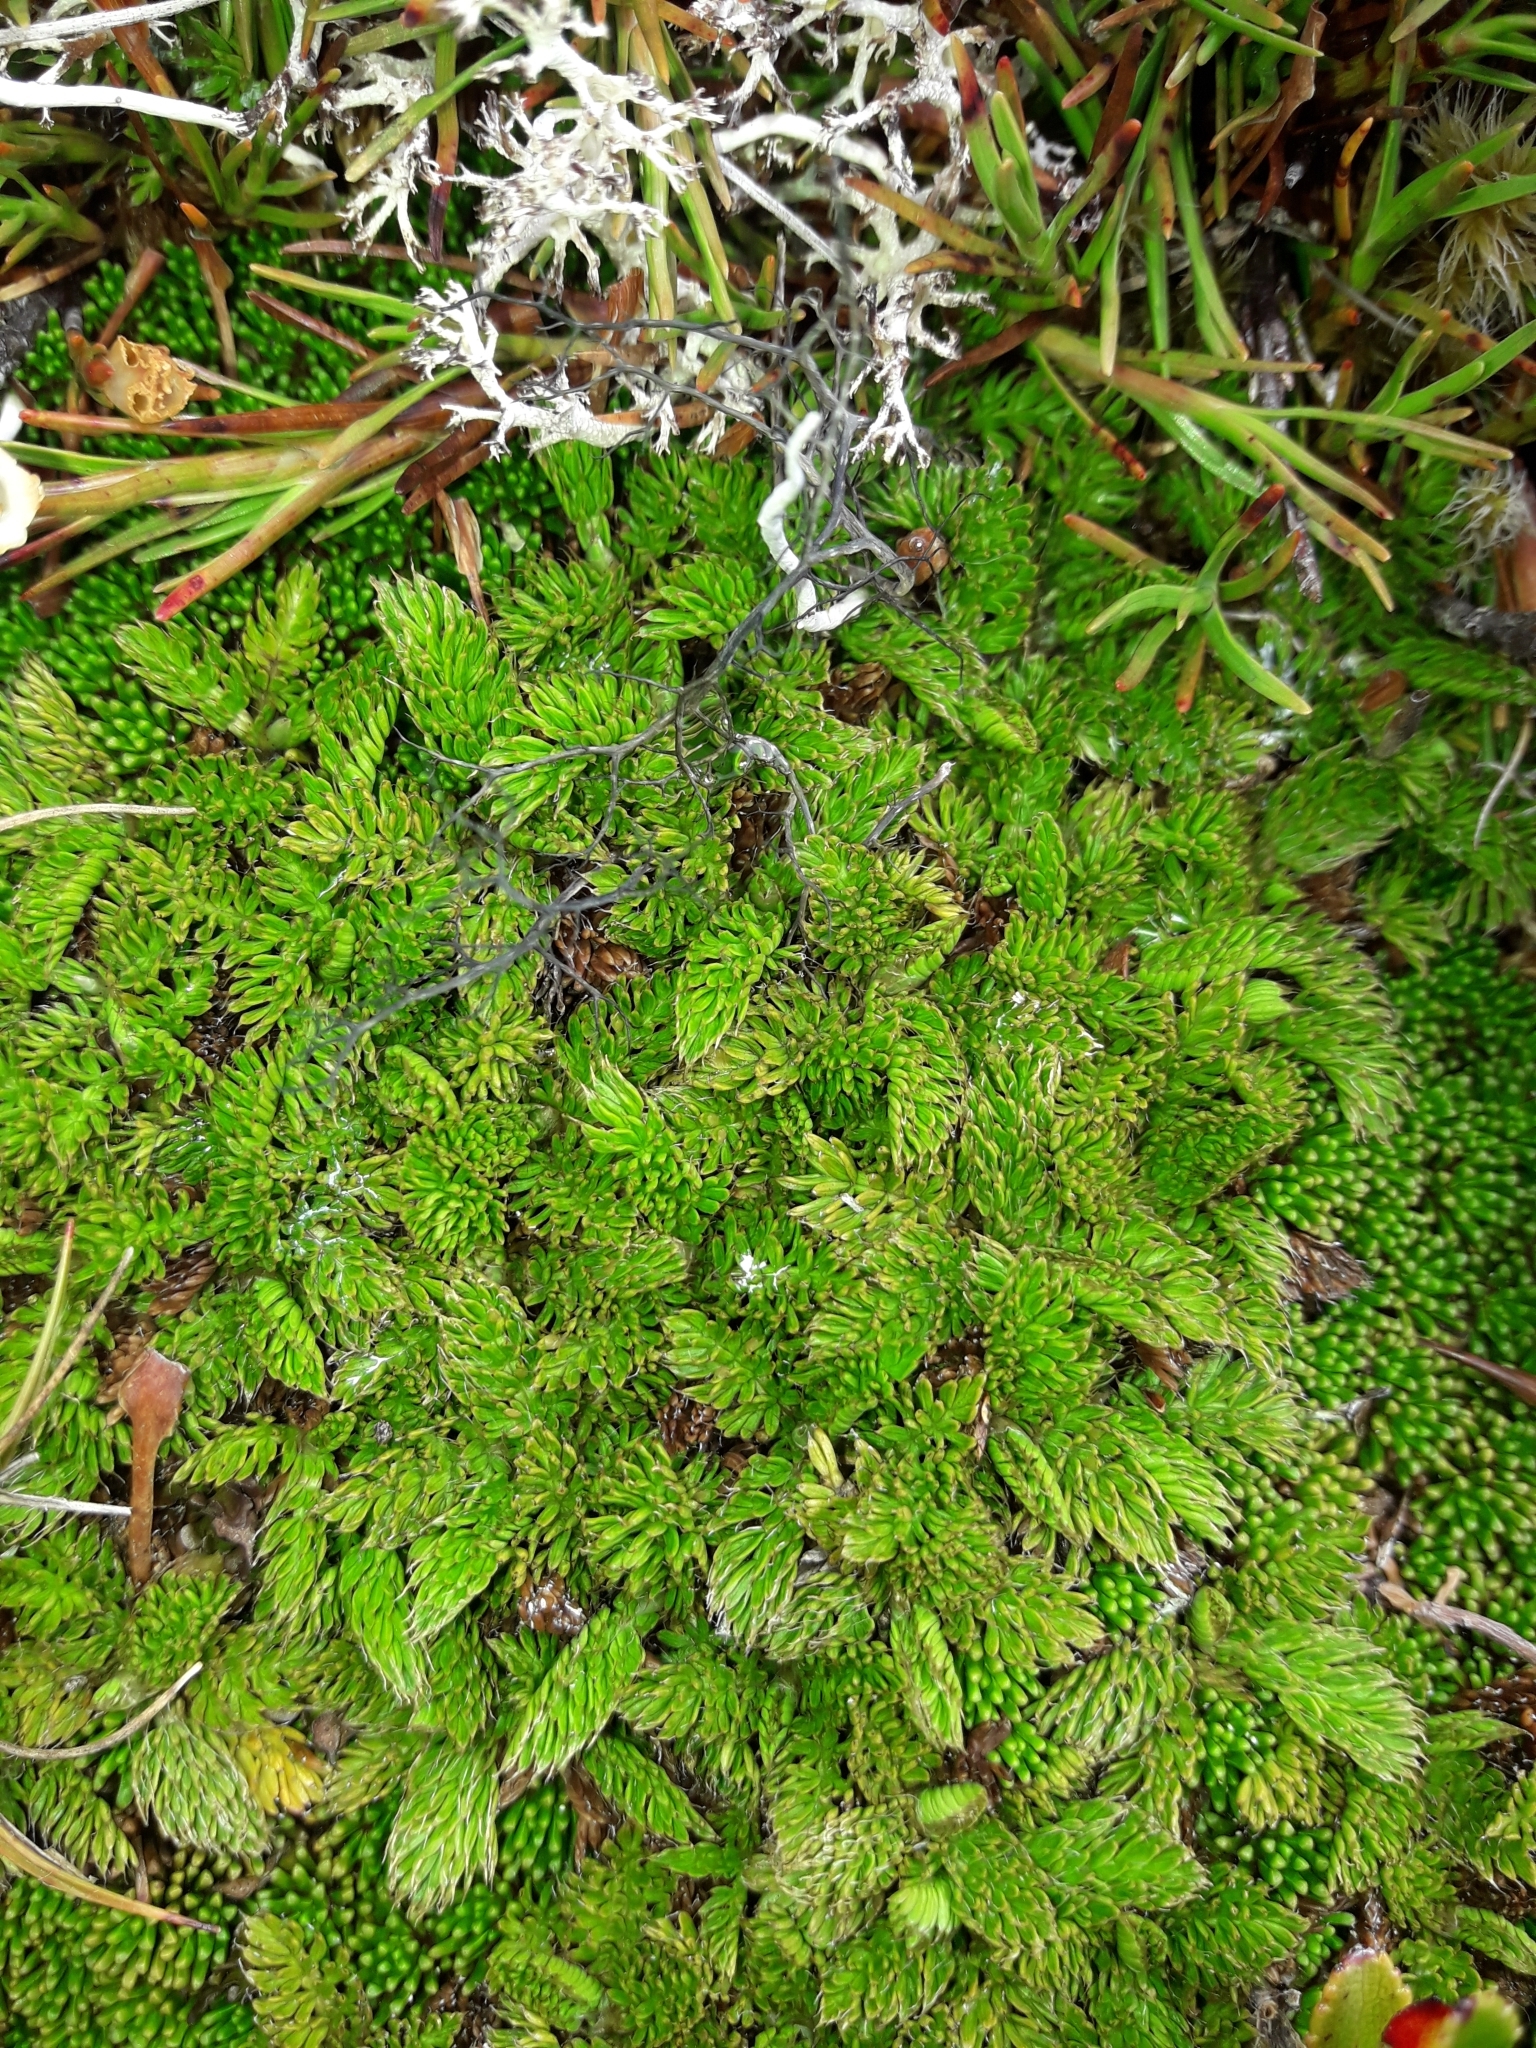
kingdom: Plantae
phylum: Tracheophyta
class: Magnoliopsida
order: Apiales
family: Apiaceae
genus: Anisotome
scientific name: Anisotome imbricata
